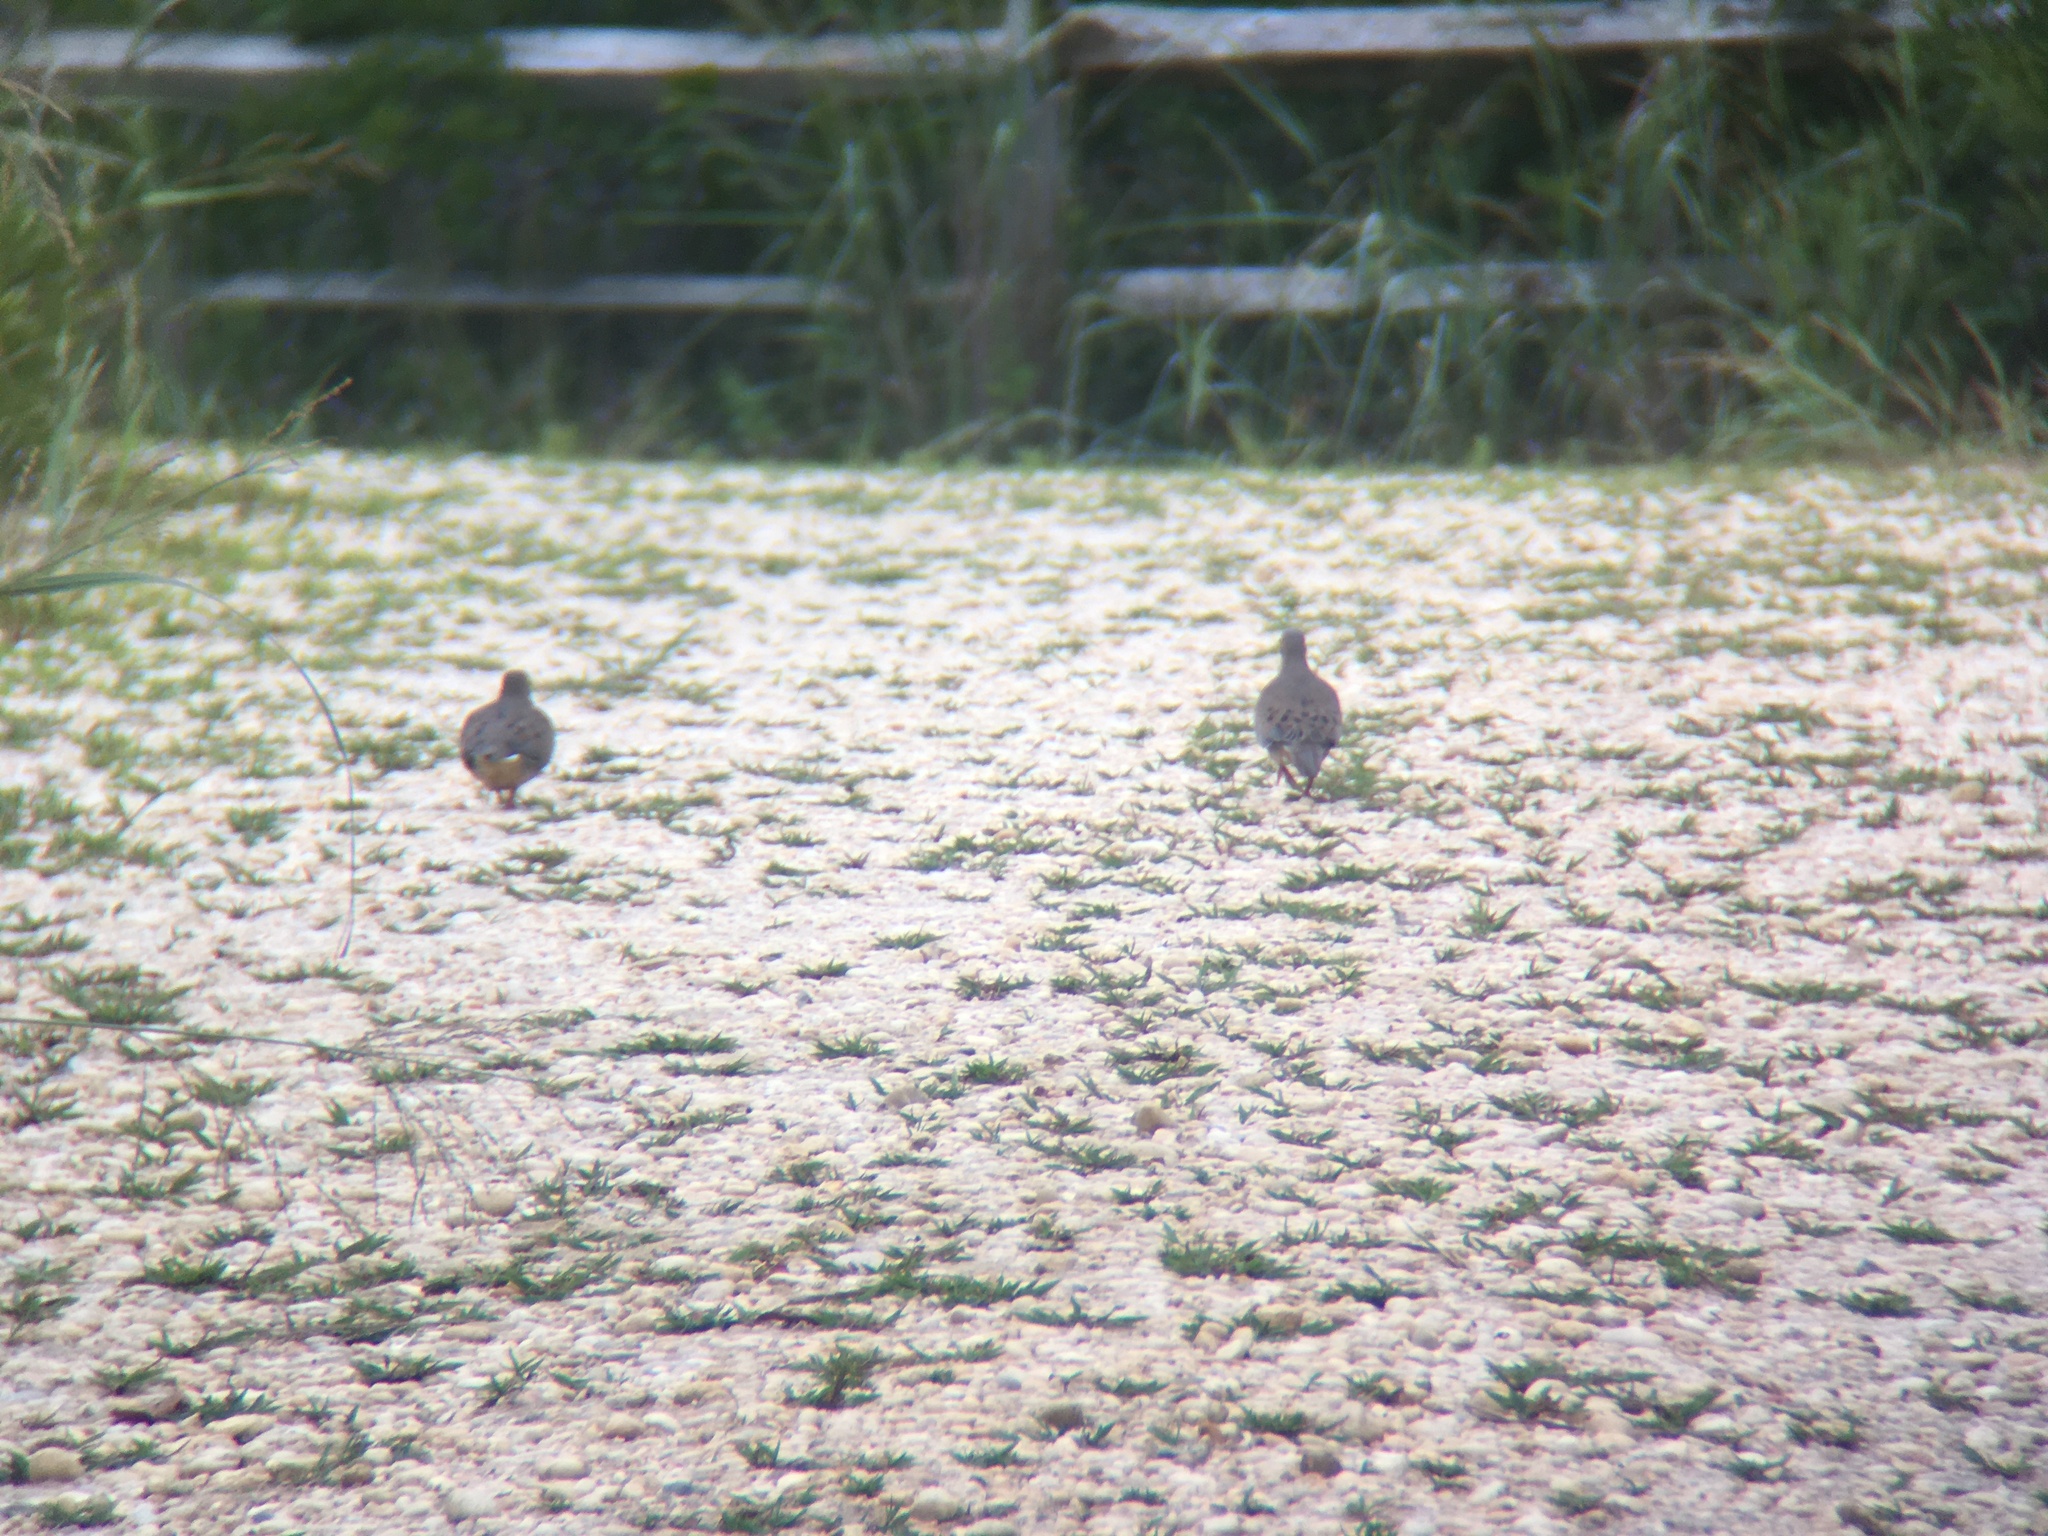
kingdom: Animalia
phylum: Chordata
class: Aves
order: Columbiformes
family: Columbidae
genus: Zenaida
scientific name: Zenaida macroura
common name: Mourning dove
